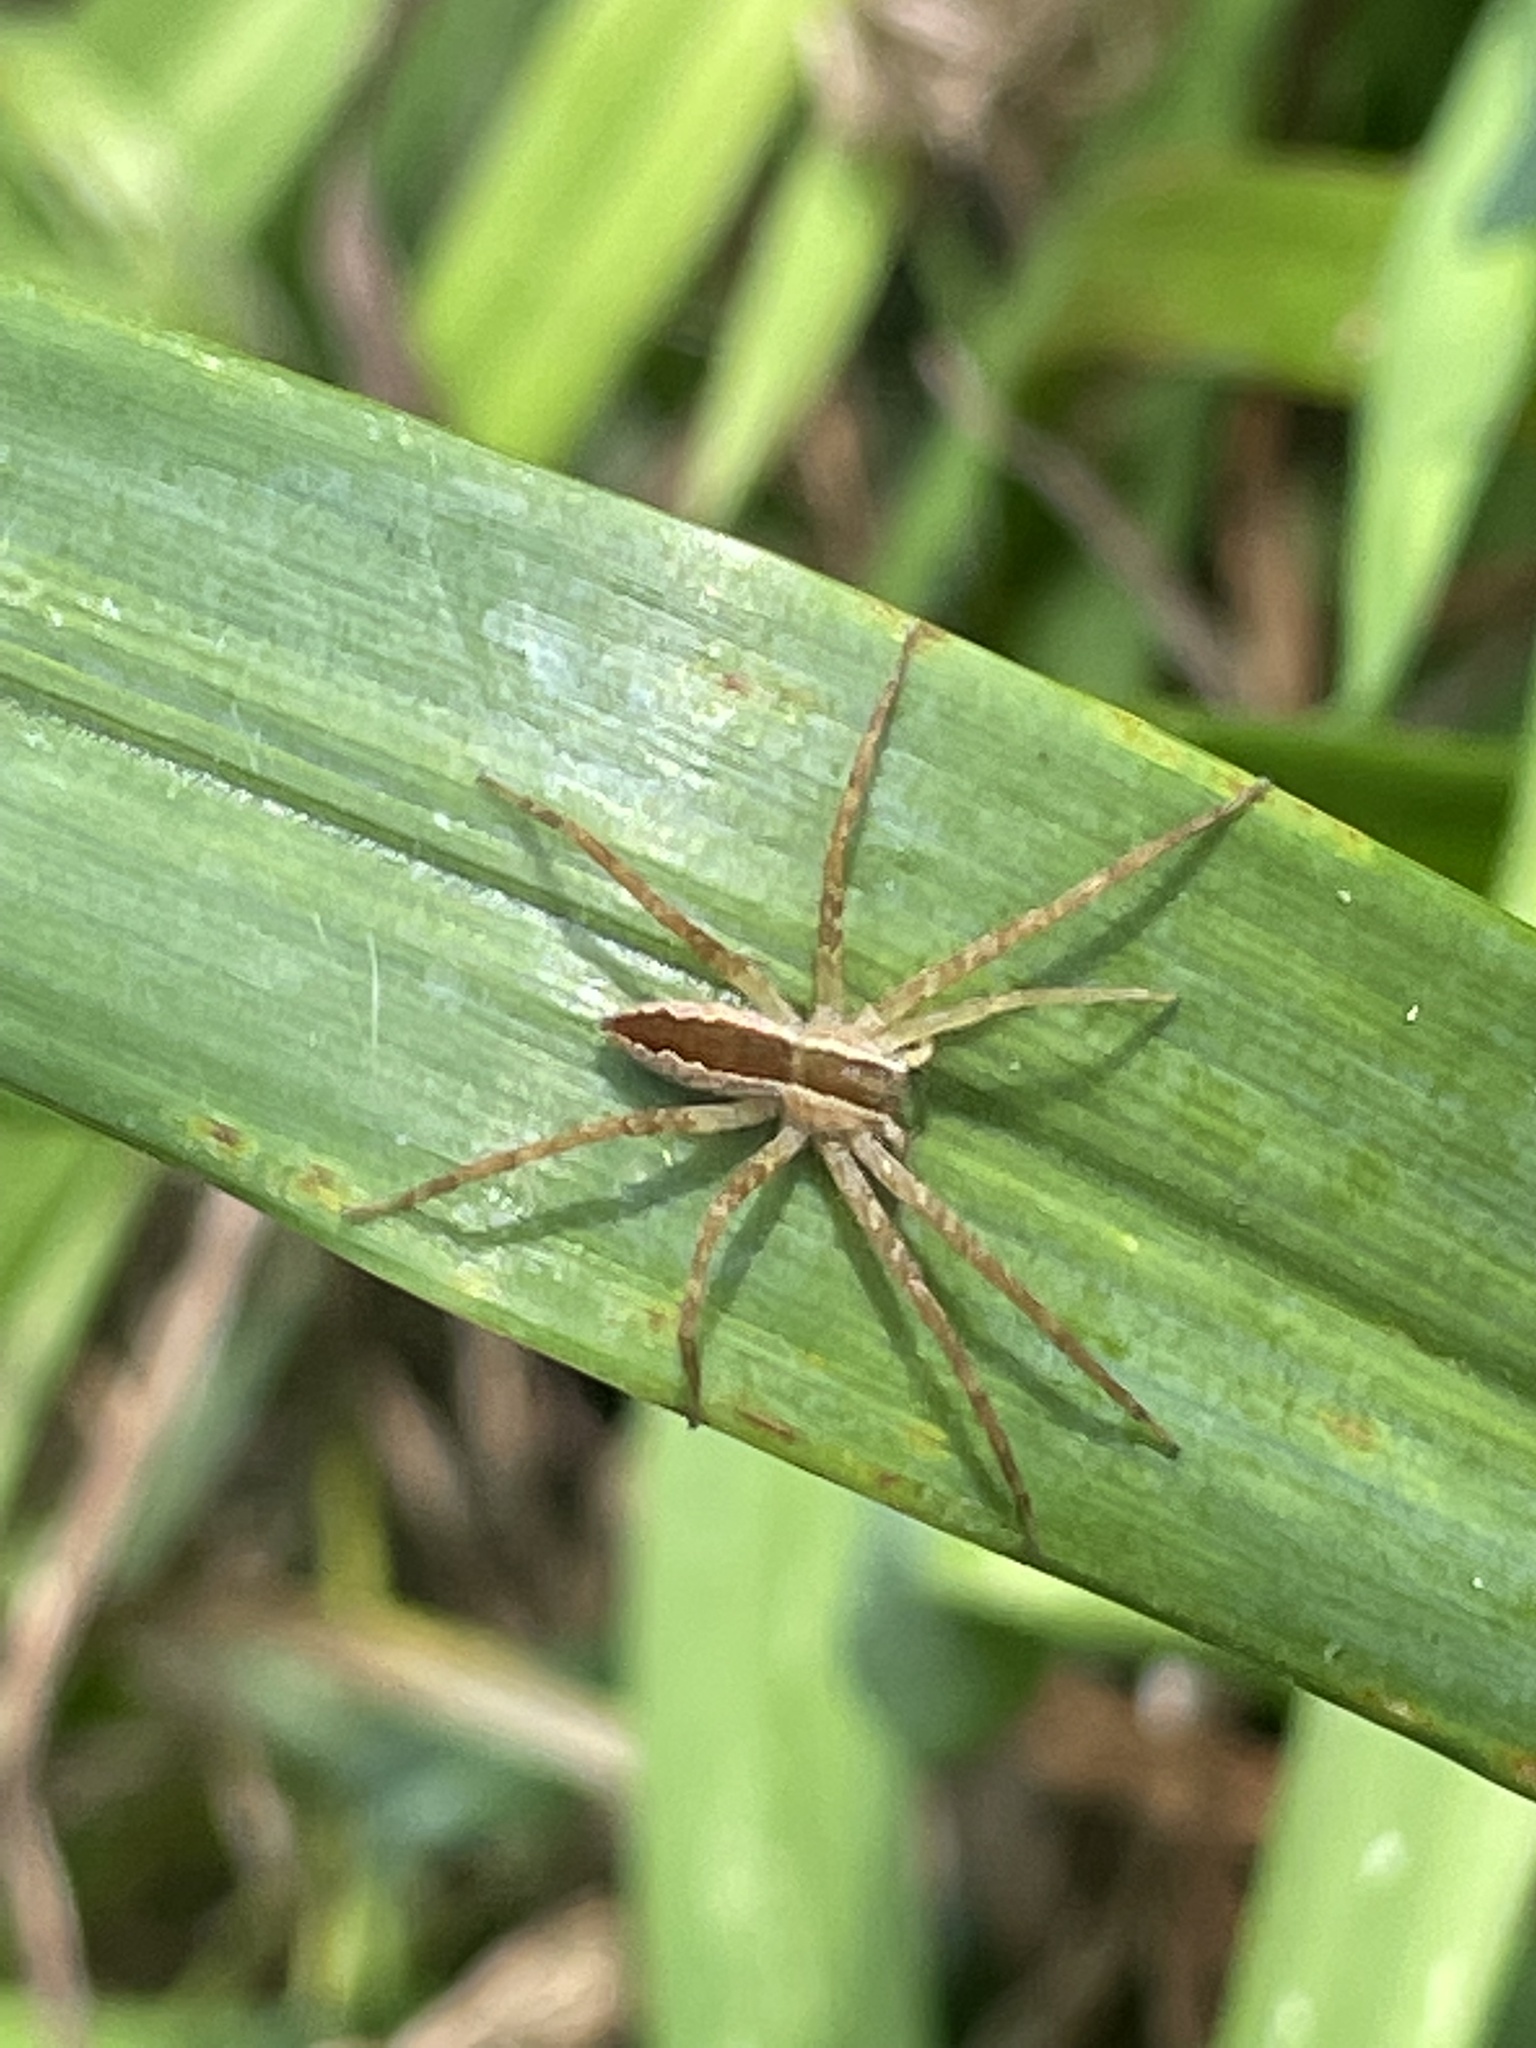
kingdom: Animalia
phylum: Arthropoda
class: Arachnida
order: Araneae
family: Pisauridae
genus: Pisaurina
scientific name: Pisaurina mira
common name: American nursery web spider
